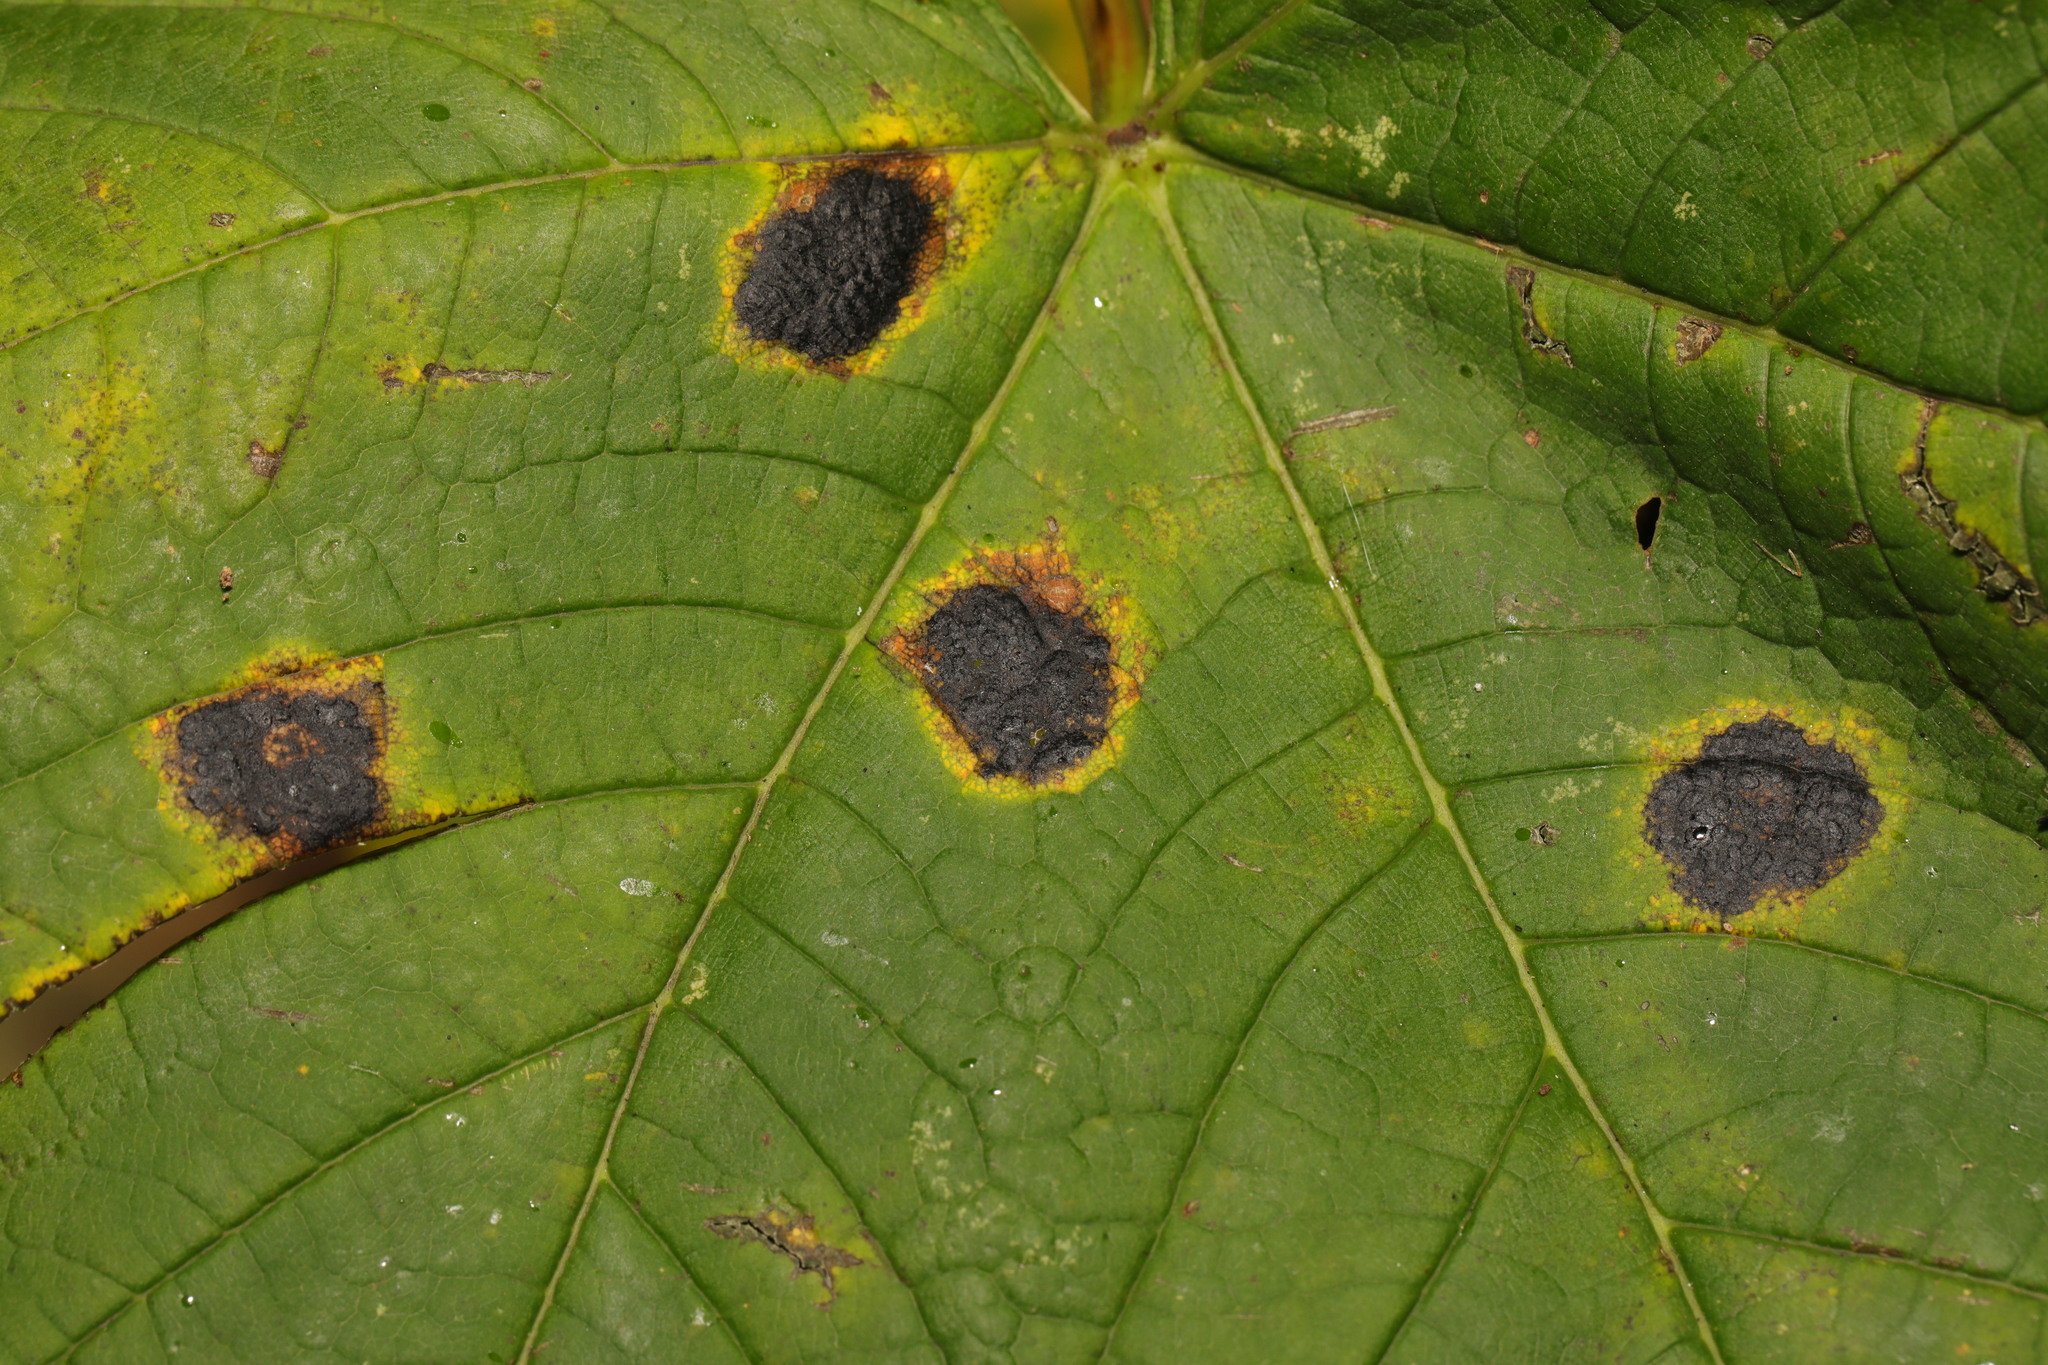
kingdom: Fungi
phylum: Ascomycota
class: Leotiomycetes
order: Rhytismatales
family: Rhytismataceae
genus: Rhytisma
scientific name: Rhytisma acerinum
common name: European tar spot
